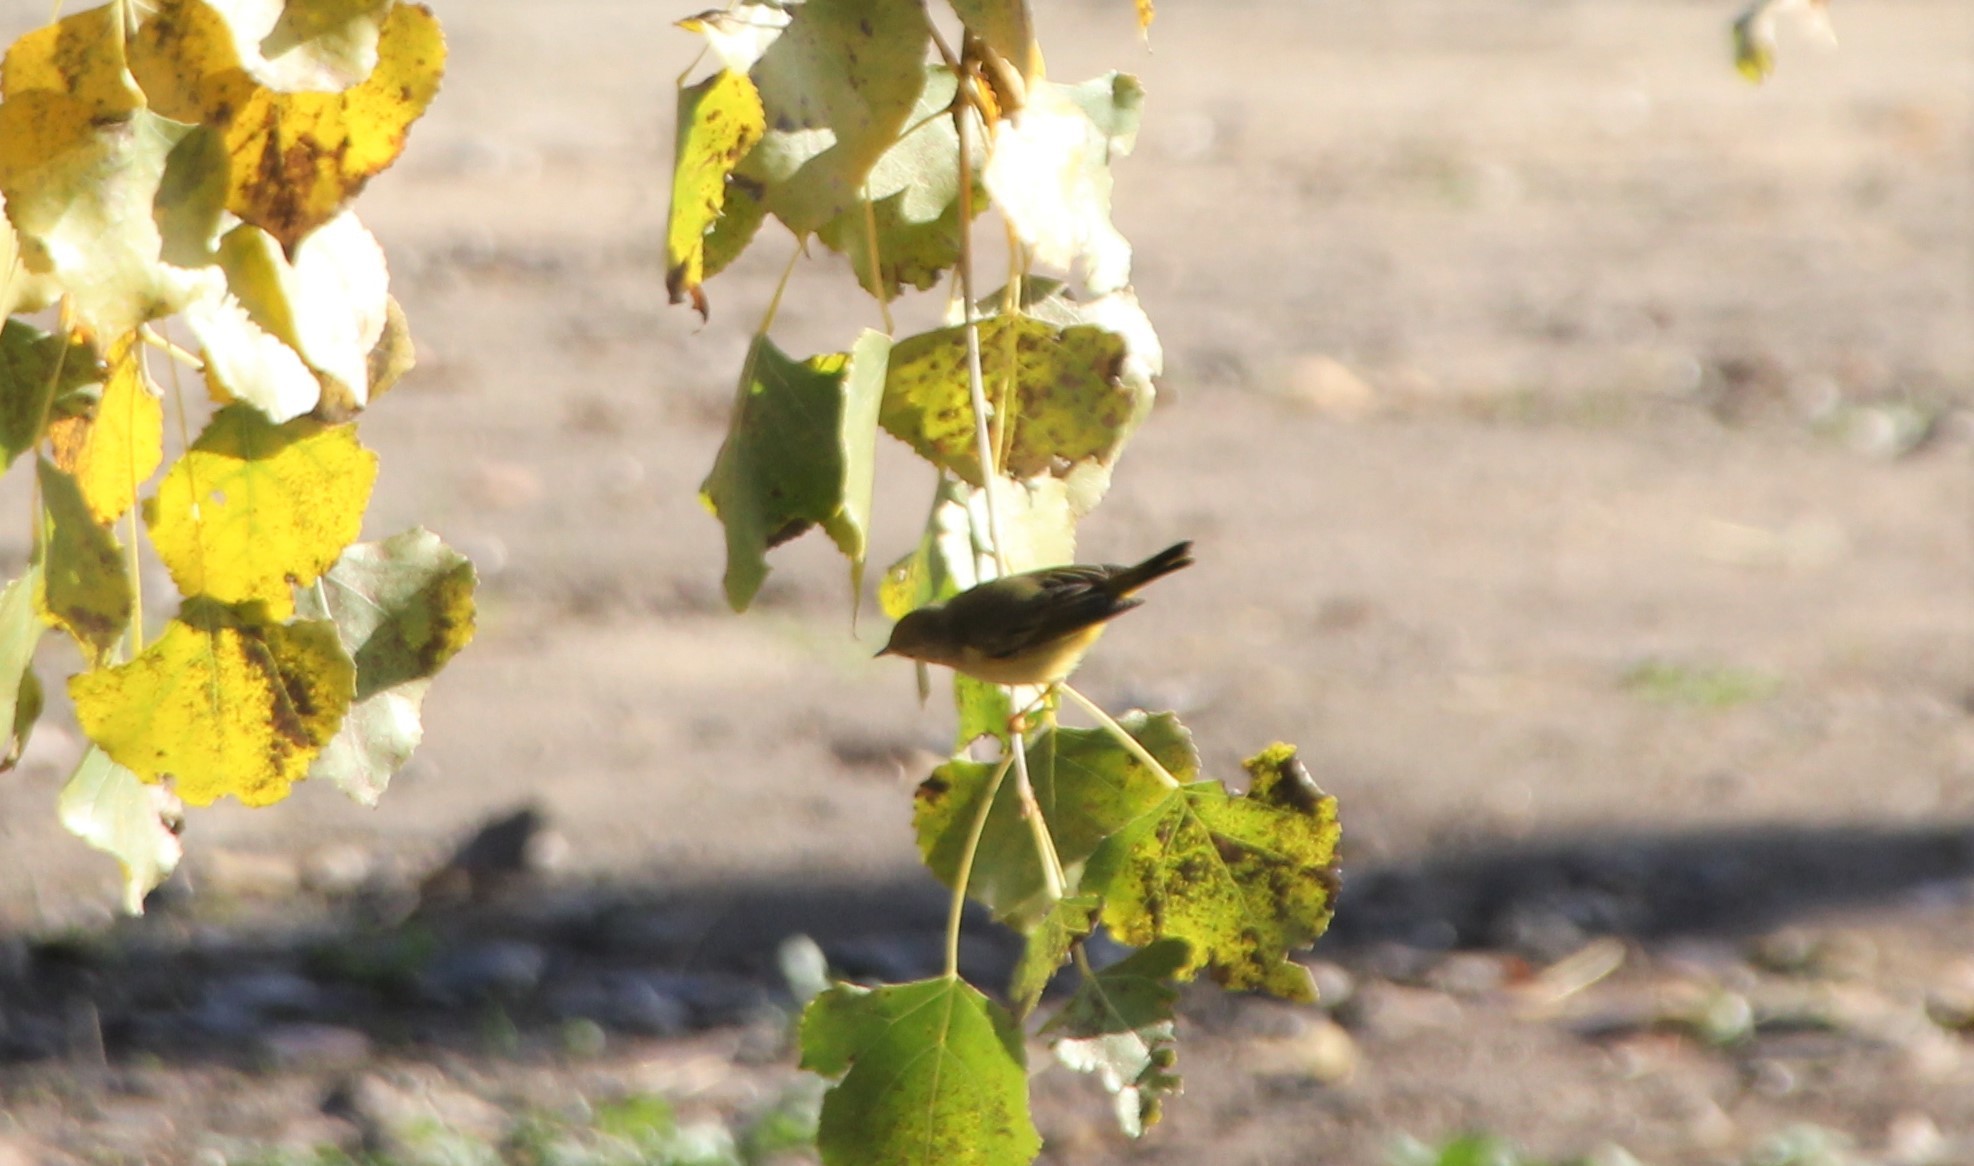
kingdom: Animalia
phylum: Chordata
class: Aves
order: Passeriformes
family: Parulidae
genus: Setophaga
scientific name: Setophaga petechia
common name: Yellow warbler
